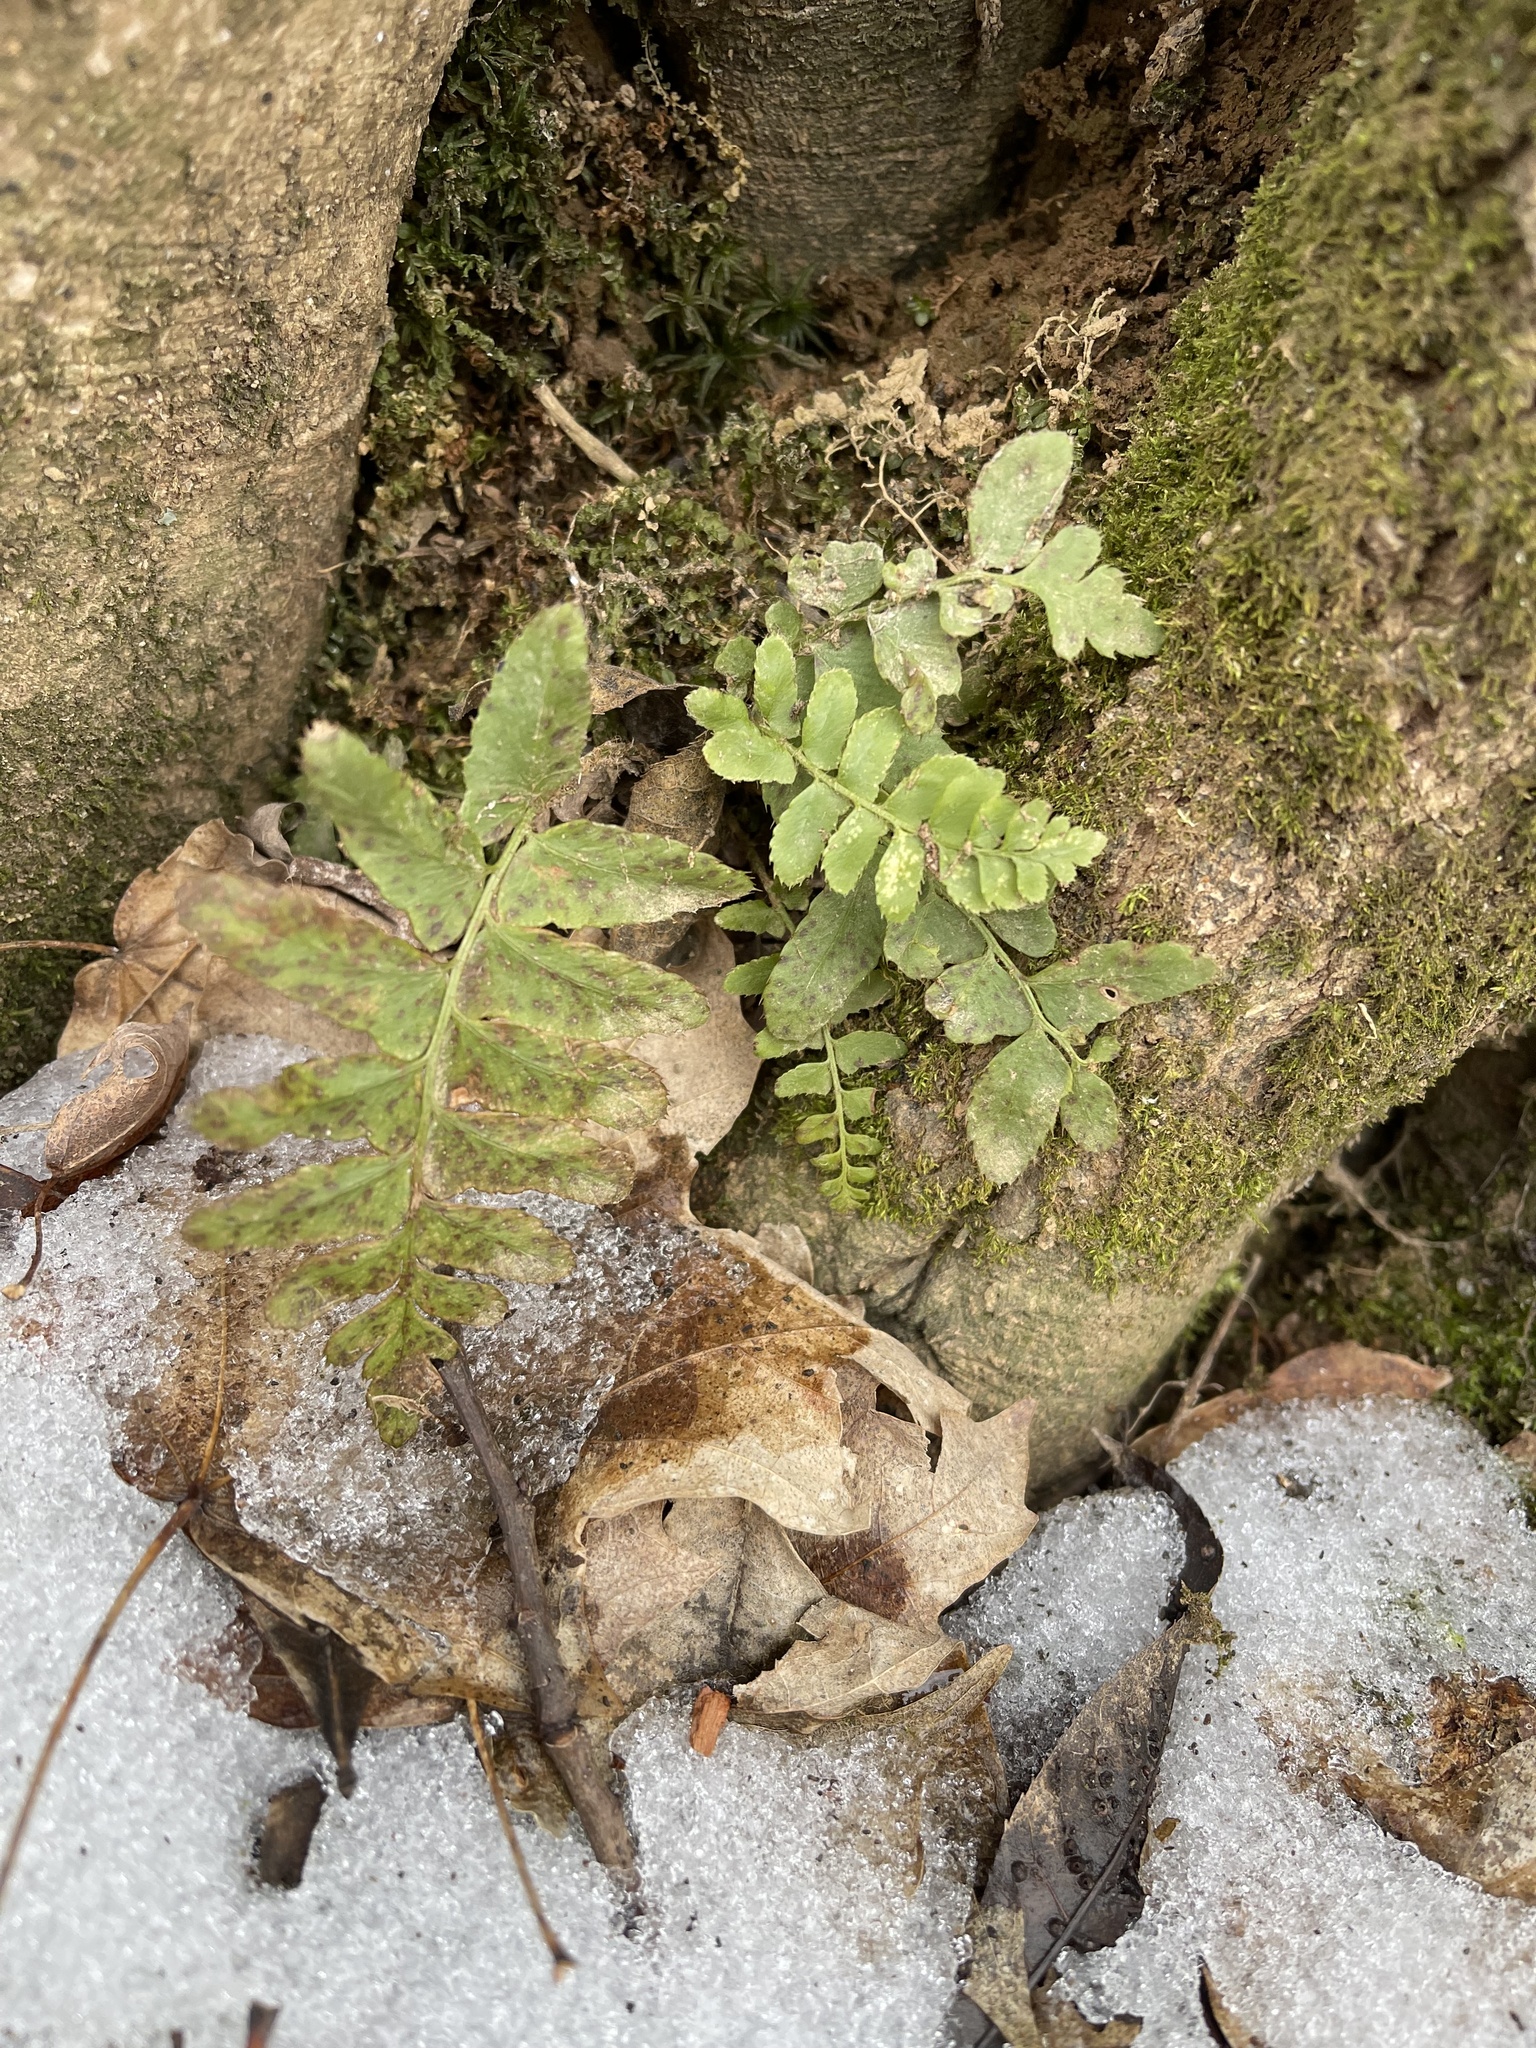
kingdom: Plantae
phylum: Tracheophyta
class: Polypodiopsida
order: Polypodiales
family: Dryopteridaceae
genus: Polystichum
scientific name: Polystichum acrostichoides
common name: Christmas fern
